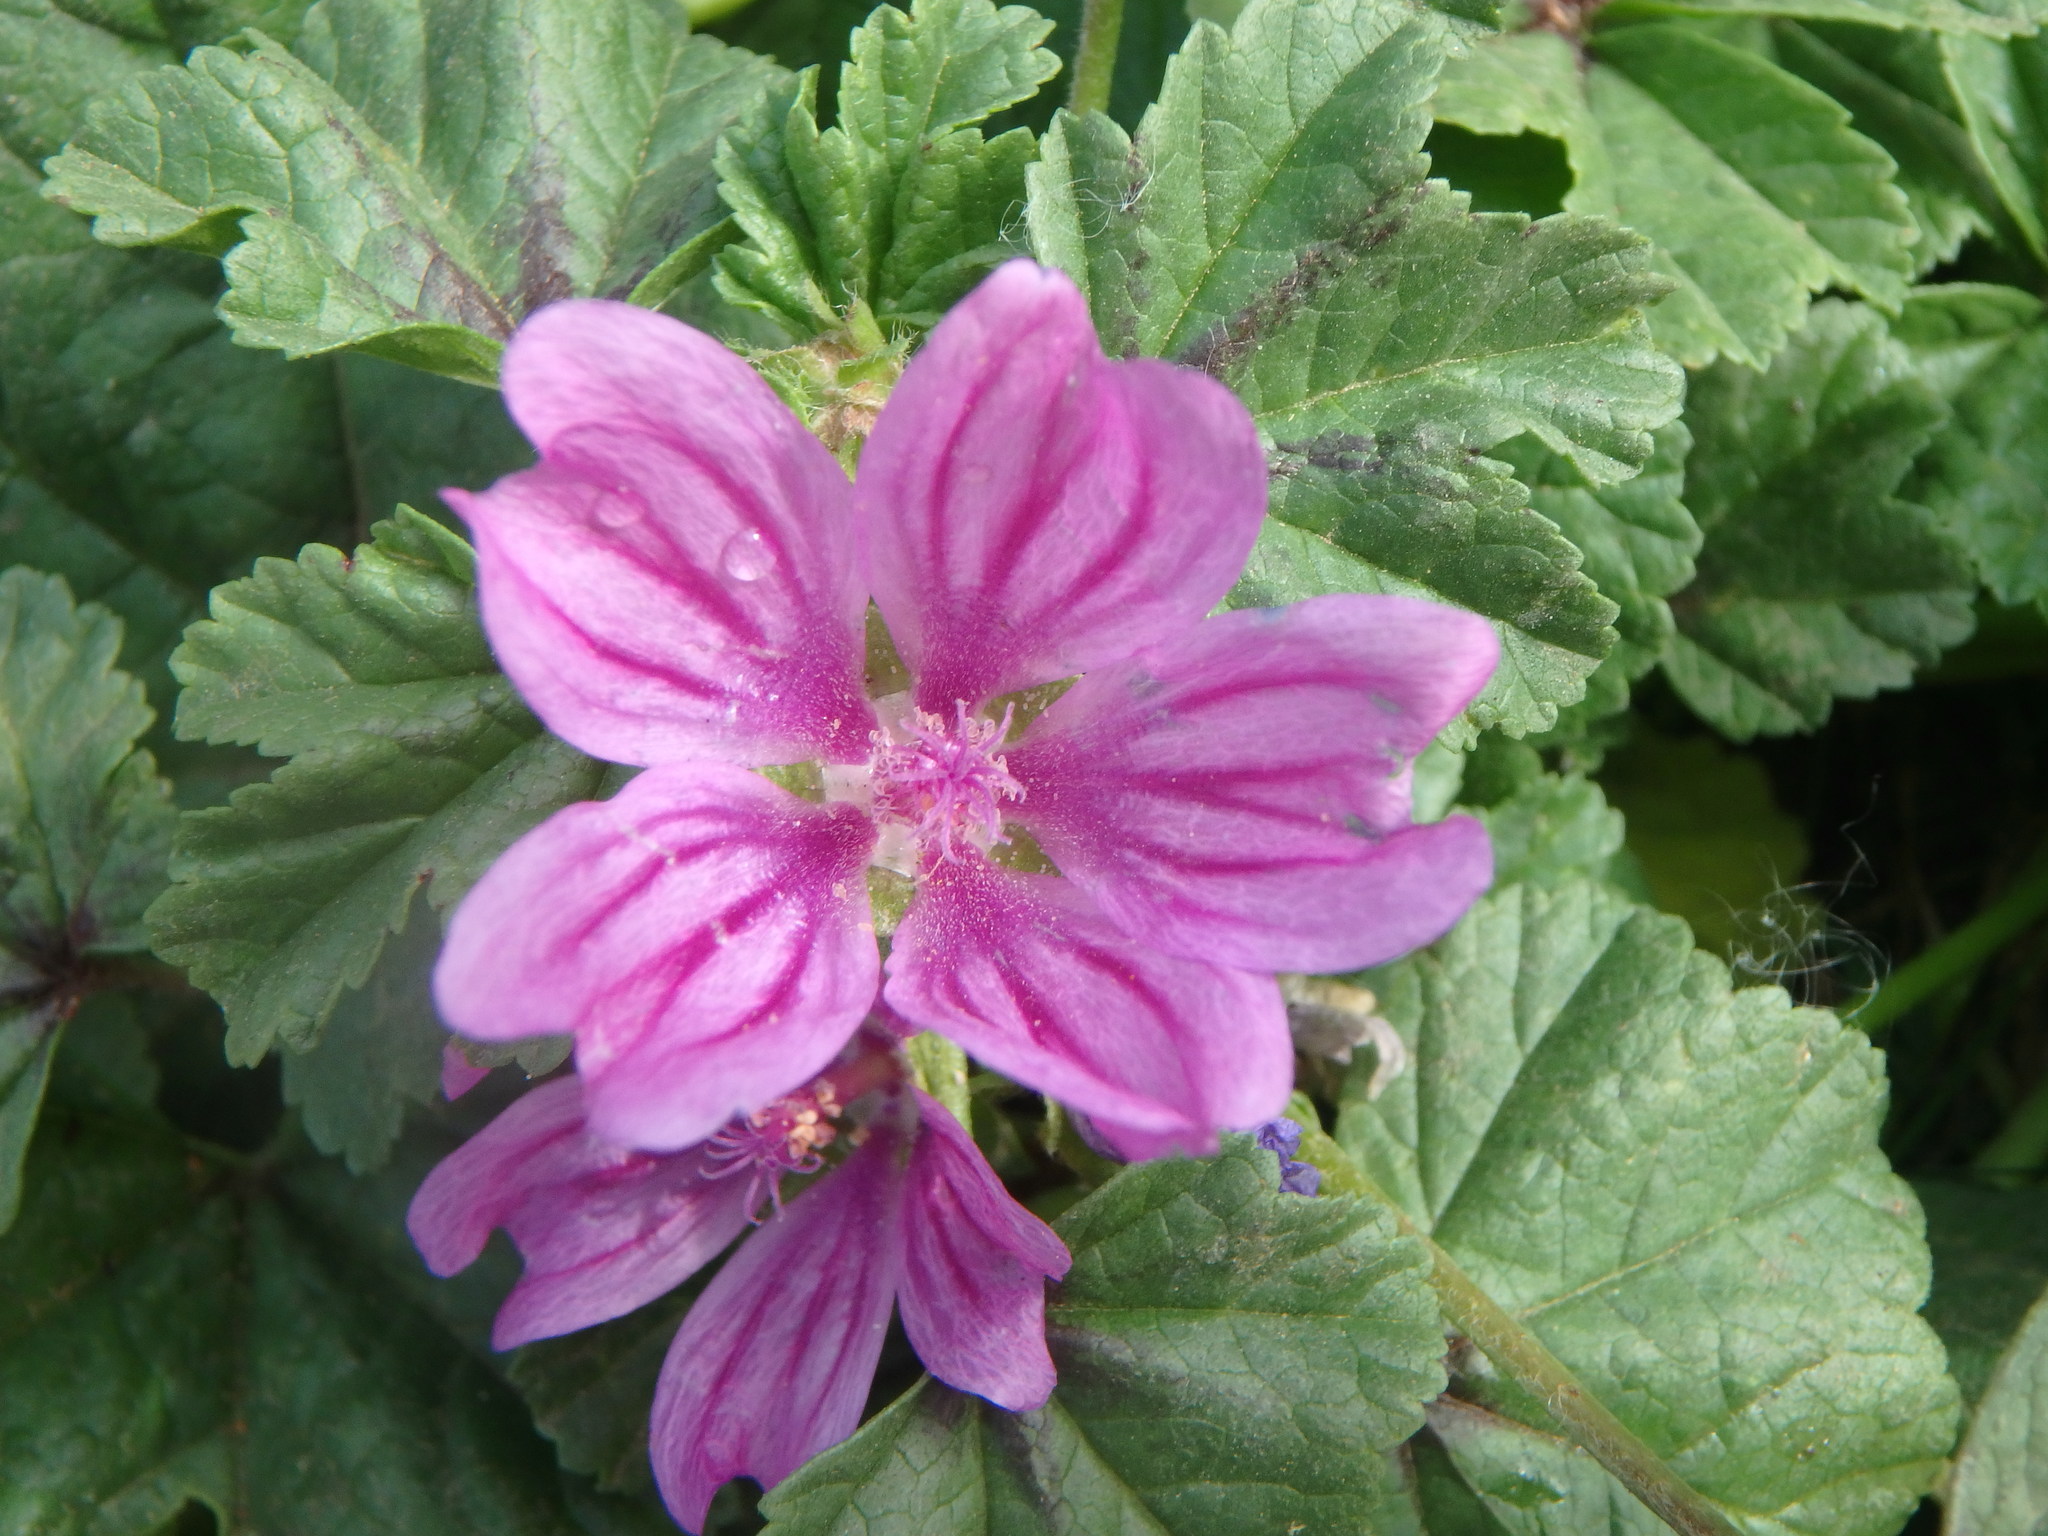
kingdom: Plantae
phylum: Tracheophyta
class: Magnoliopsida
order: Malvales
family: Malvaceae
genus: Malva
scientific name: Malva sylvestris
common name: Common mallow
